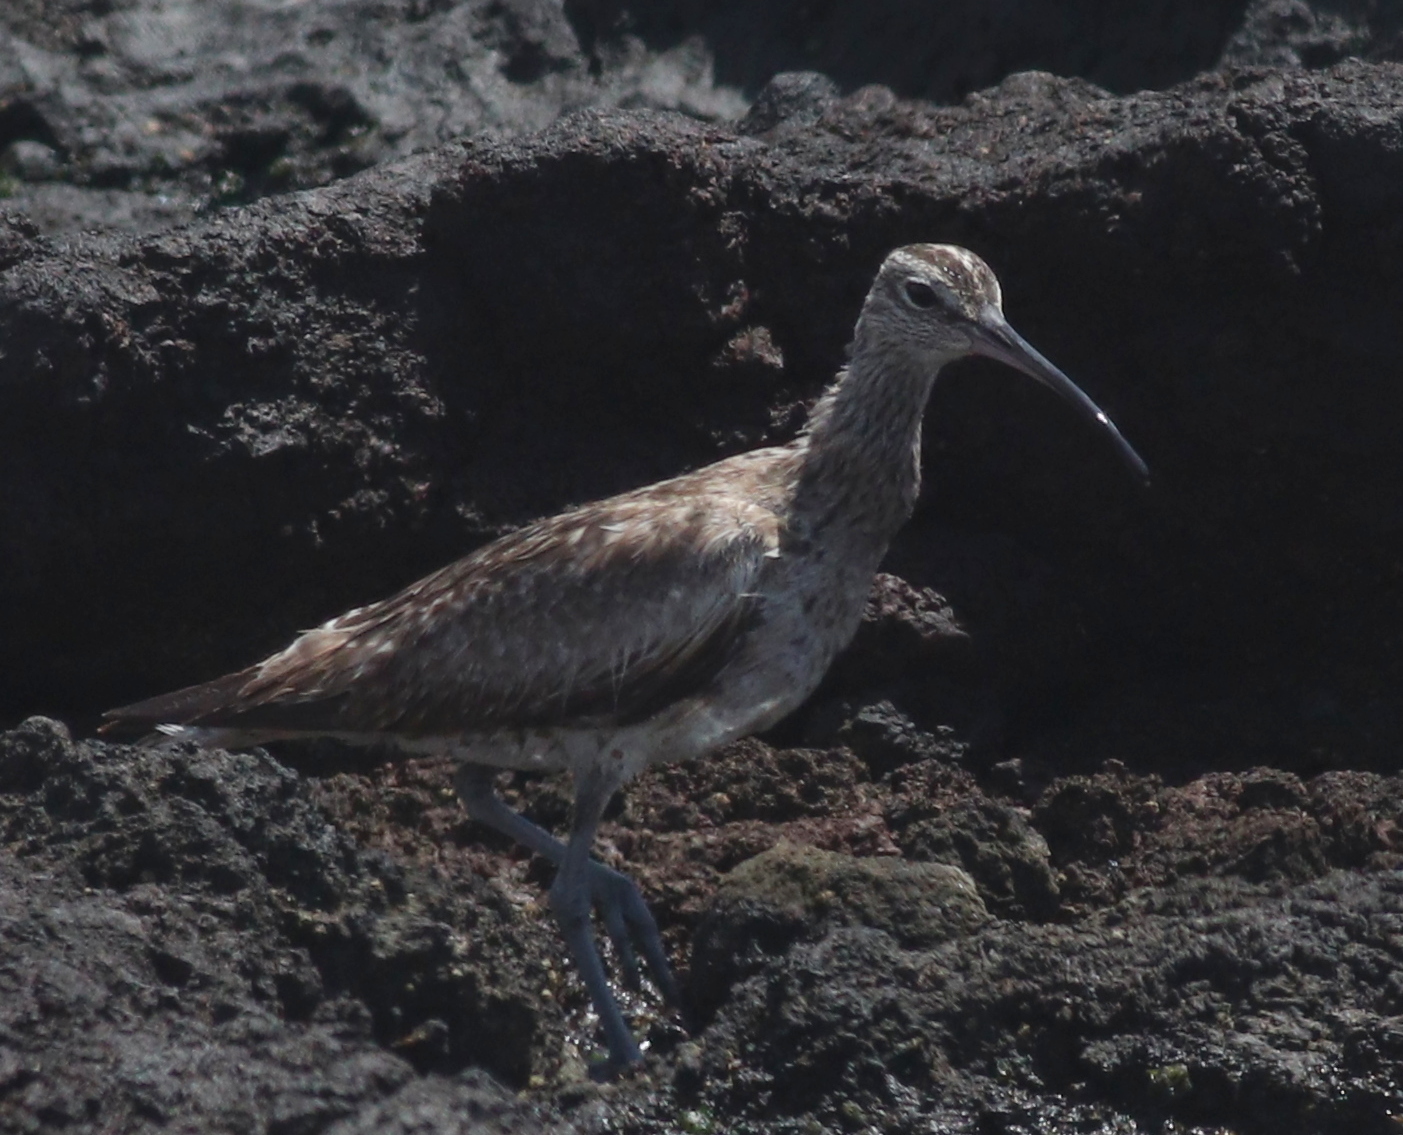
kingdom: Animalia
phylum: Chordata
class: Aves
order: Charadriiformes
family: Scolopacidae
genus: Numenius
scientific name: Numenius phaeopus
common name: Whimbrel
